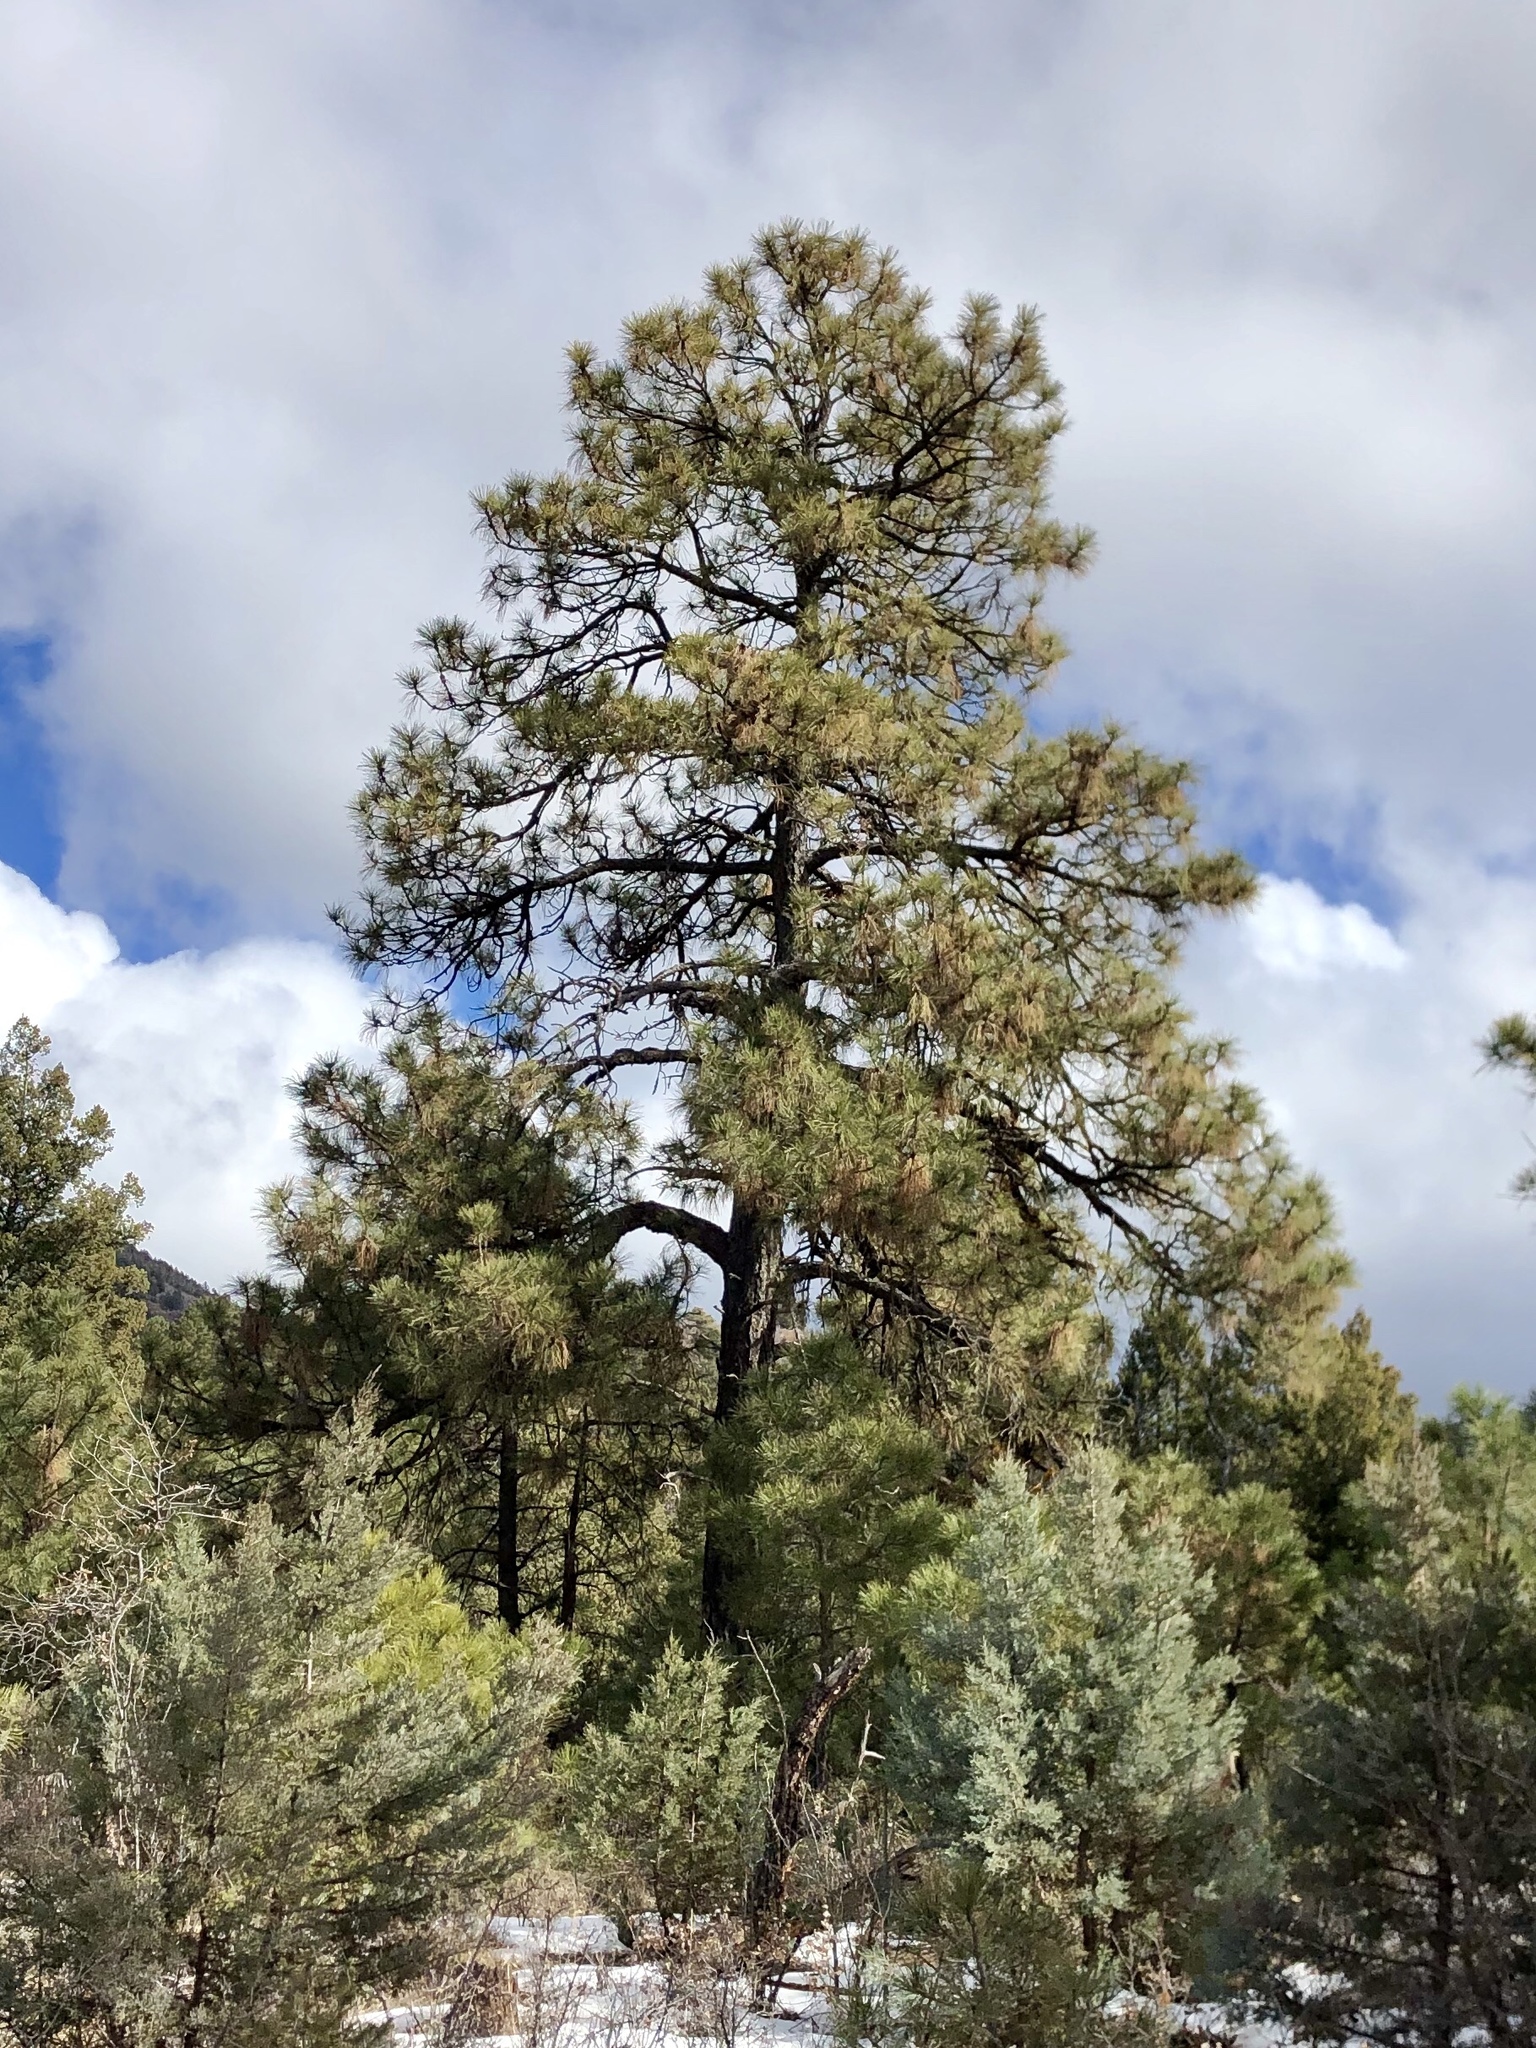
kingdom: Plantae
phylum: Tracheophyta
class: Pinopsida
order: Pinales
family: Pinaceae
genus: Pinus
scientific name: Pinus ponderosa
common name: Western yellow-pine
